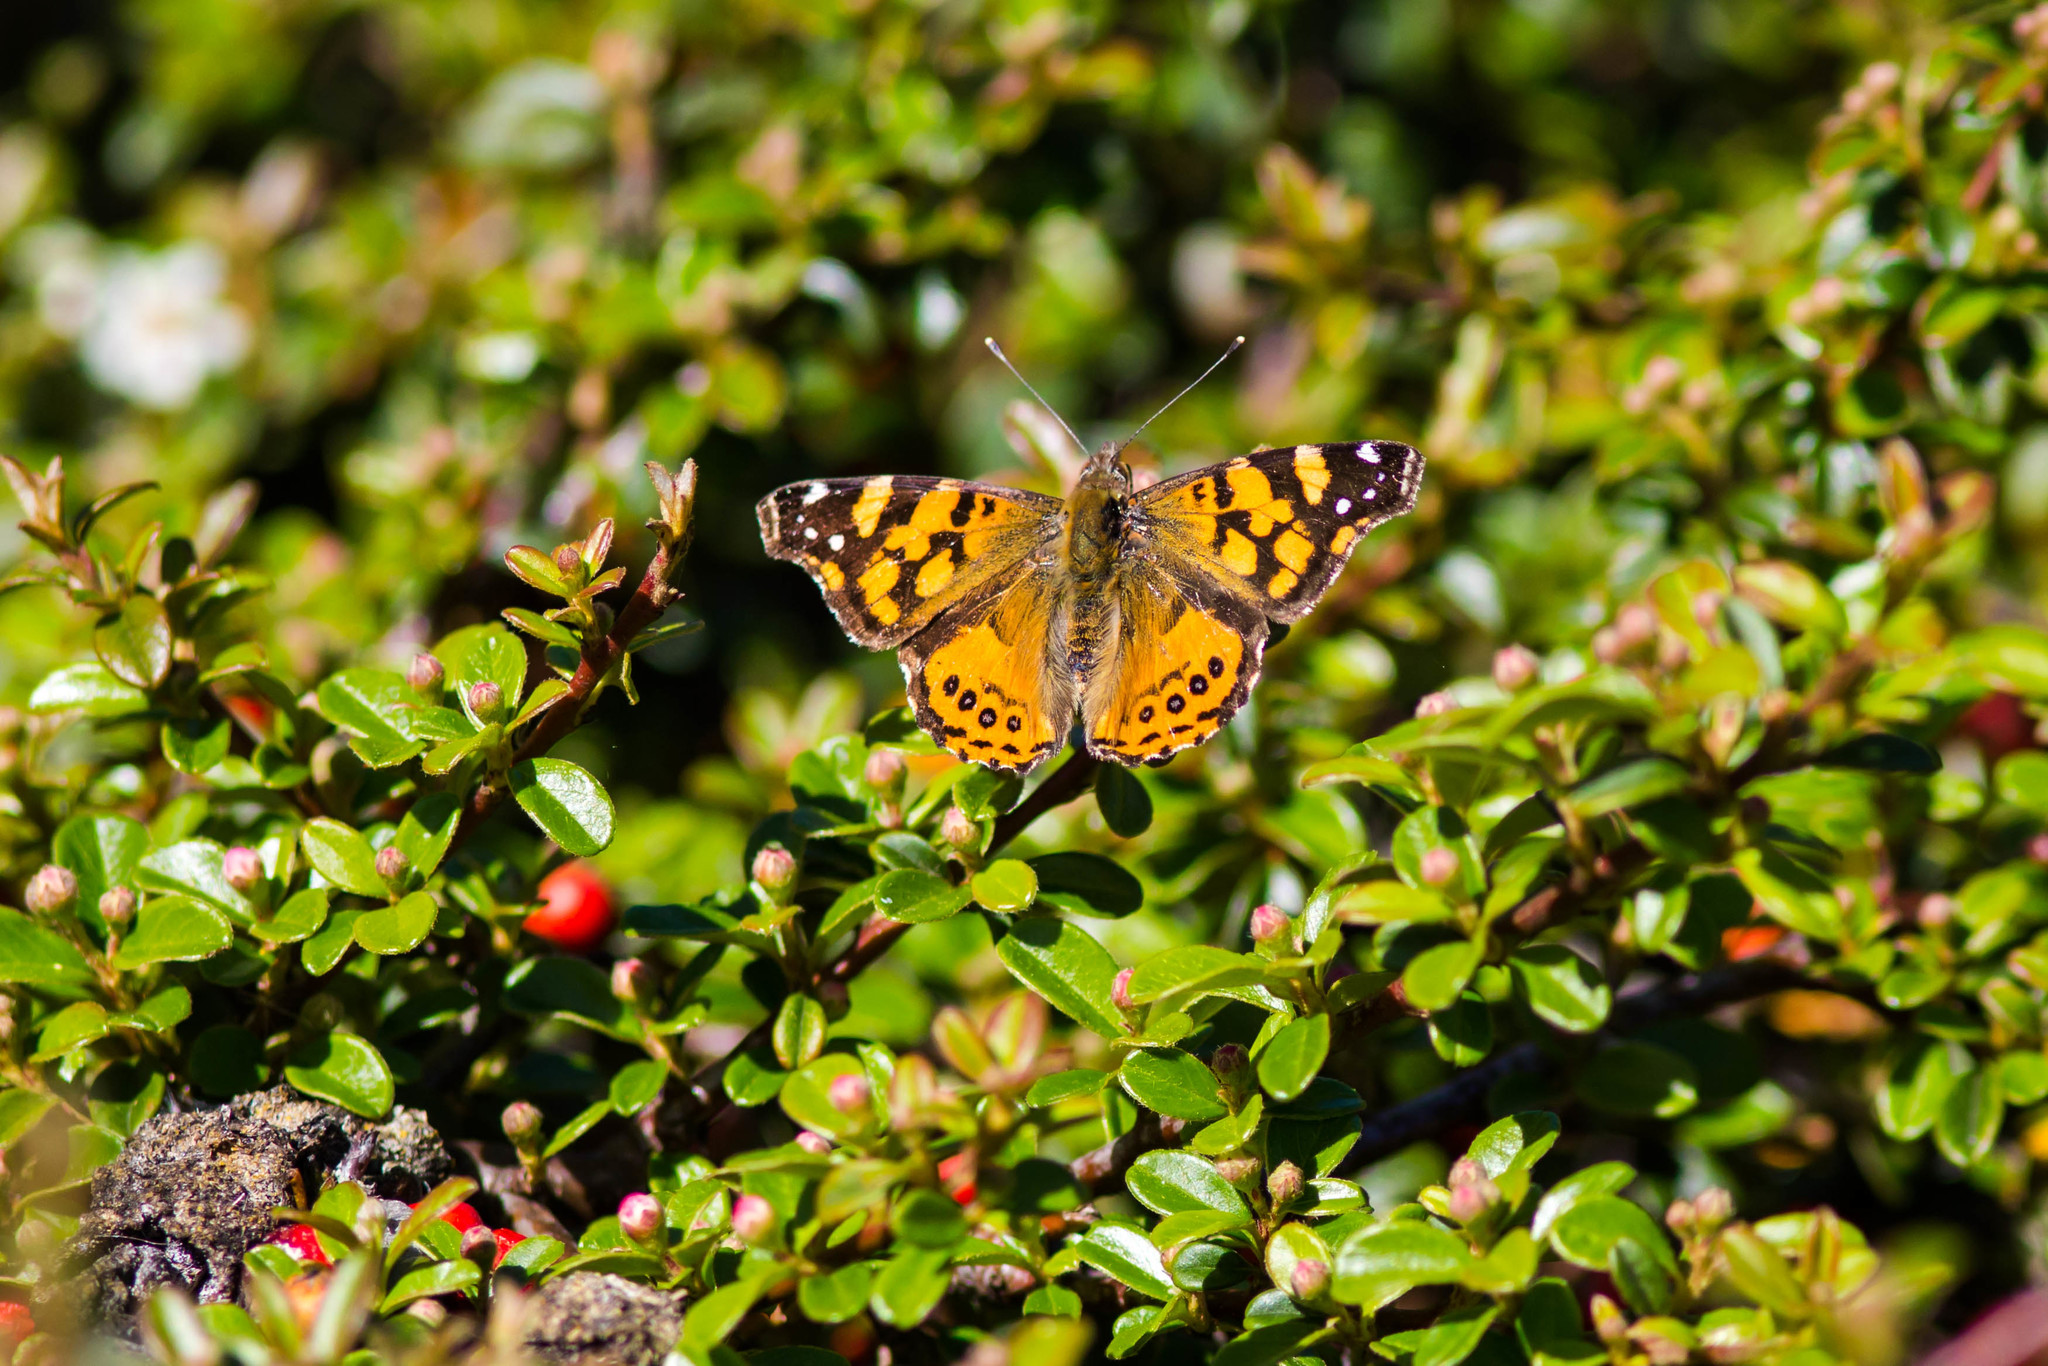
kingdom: Animalia
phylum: Arthropoda
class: Insecta
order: Lepidoptera
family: Nymphalidae
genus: Vanessa
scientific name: Vanessa annabella
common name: West coast lady
